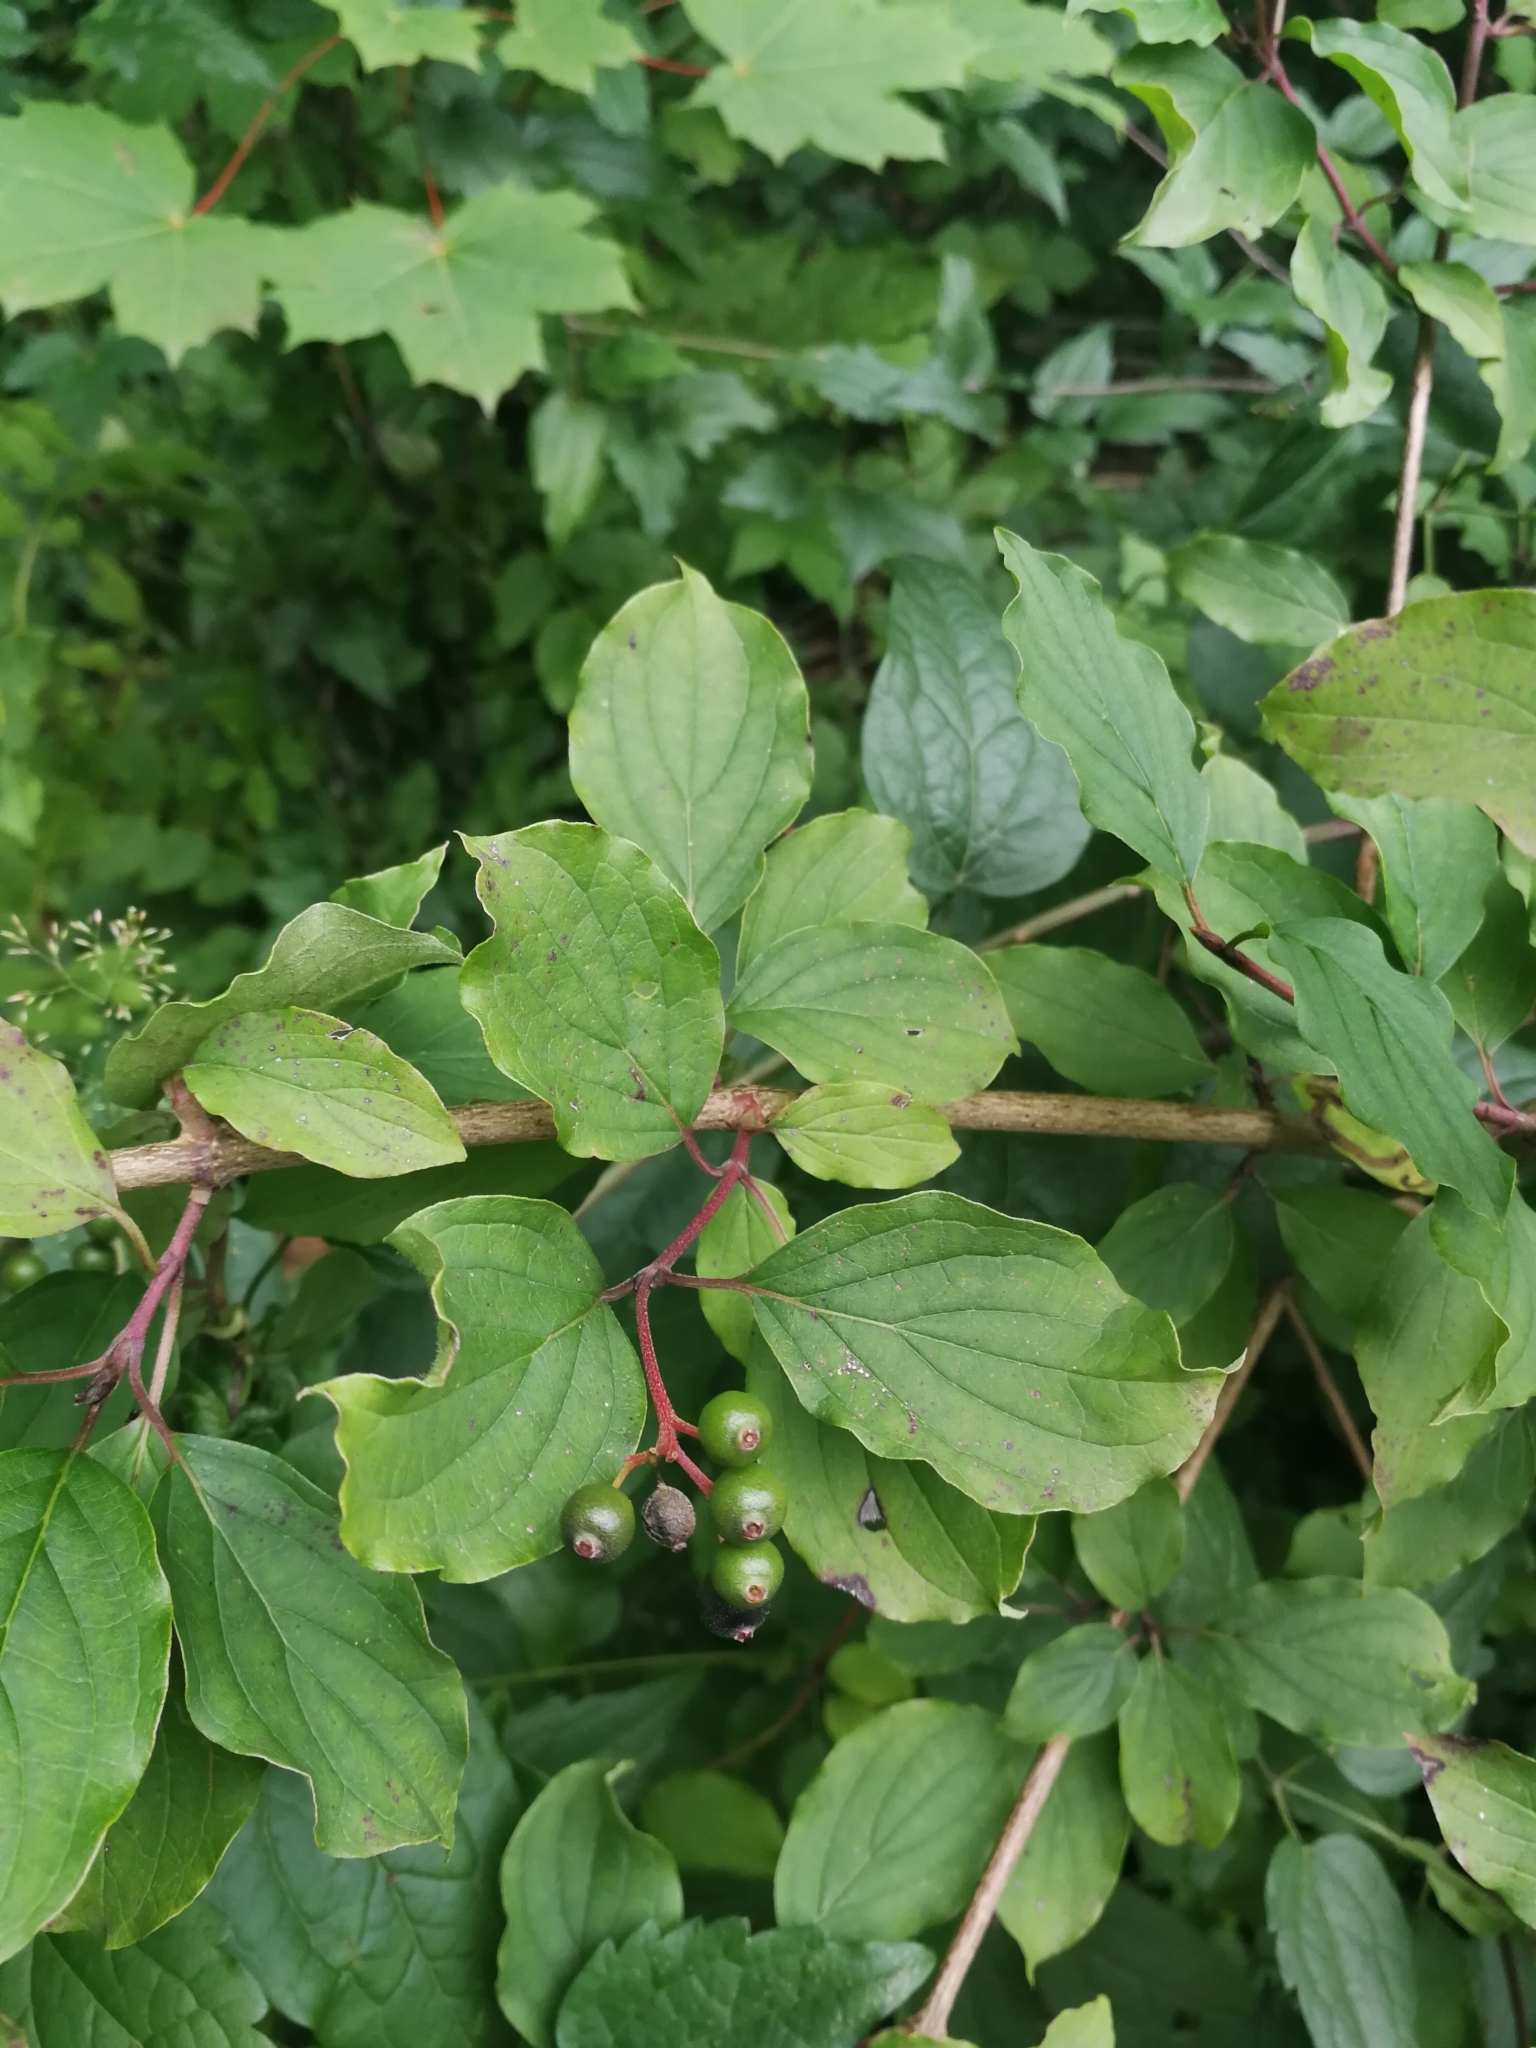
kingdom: Plantae
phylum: Tracheophyta
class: Magnoliopsida
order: Cornales
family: Cornaceae
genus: Cornus
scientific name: Cornus sanguinea
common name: Dogwood
